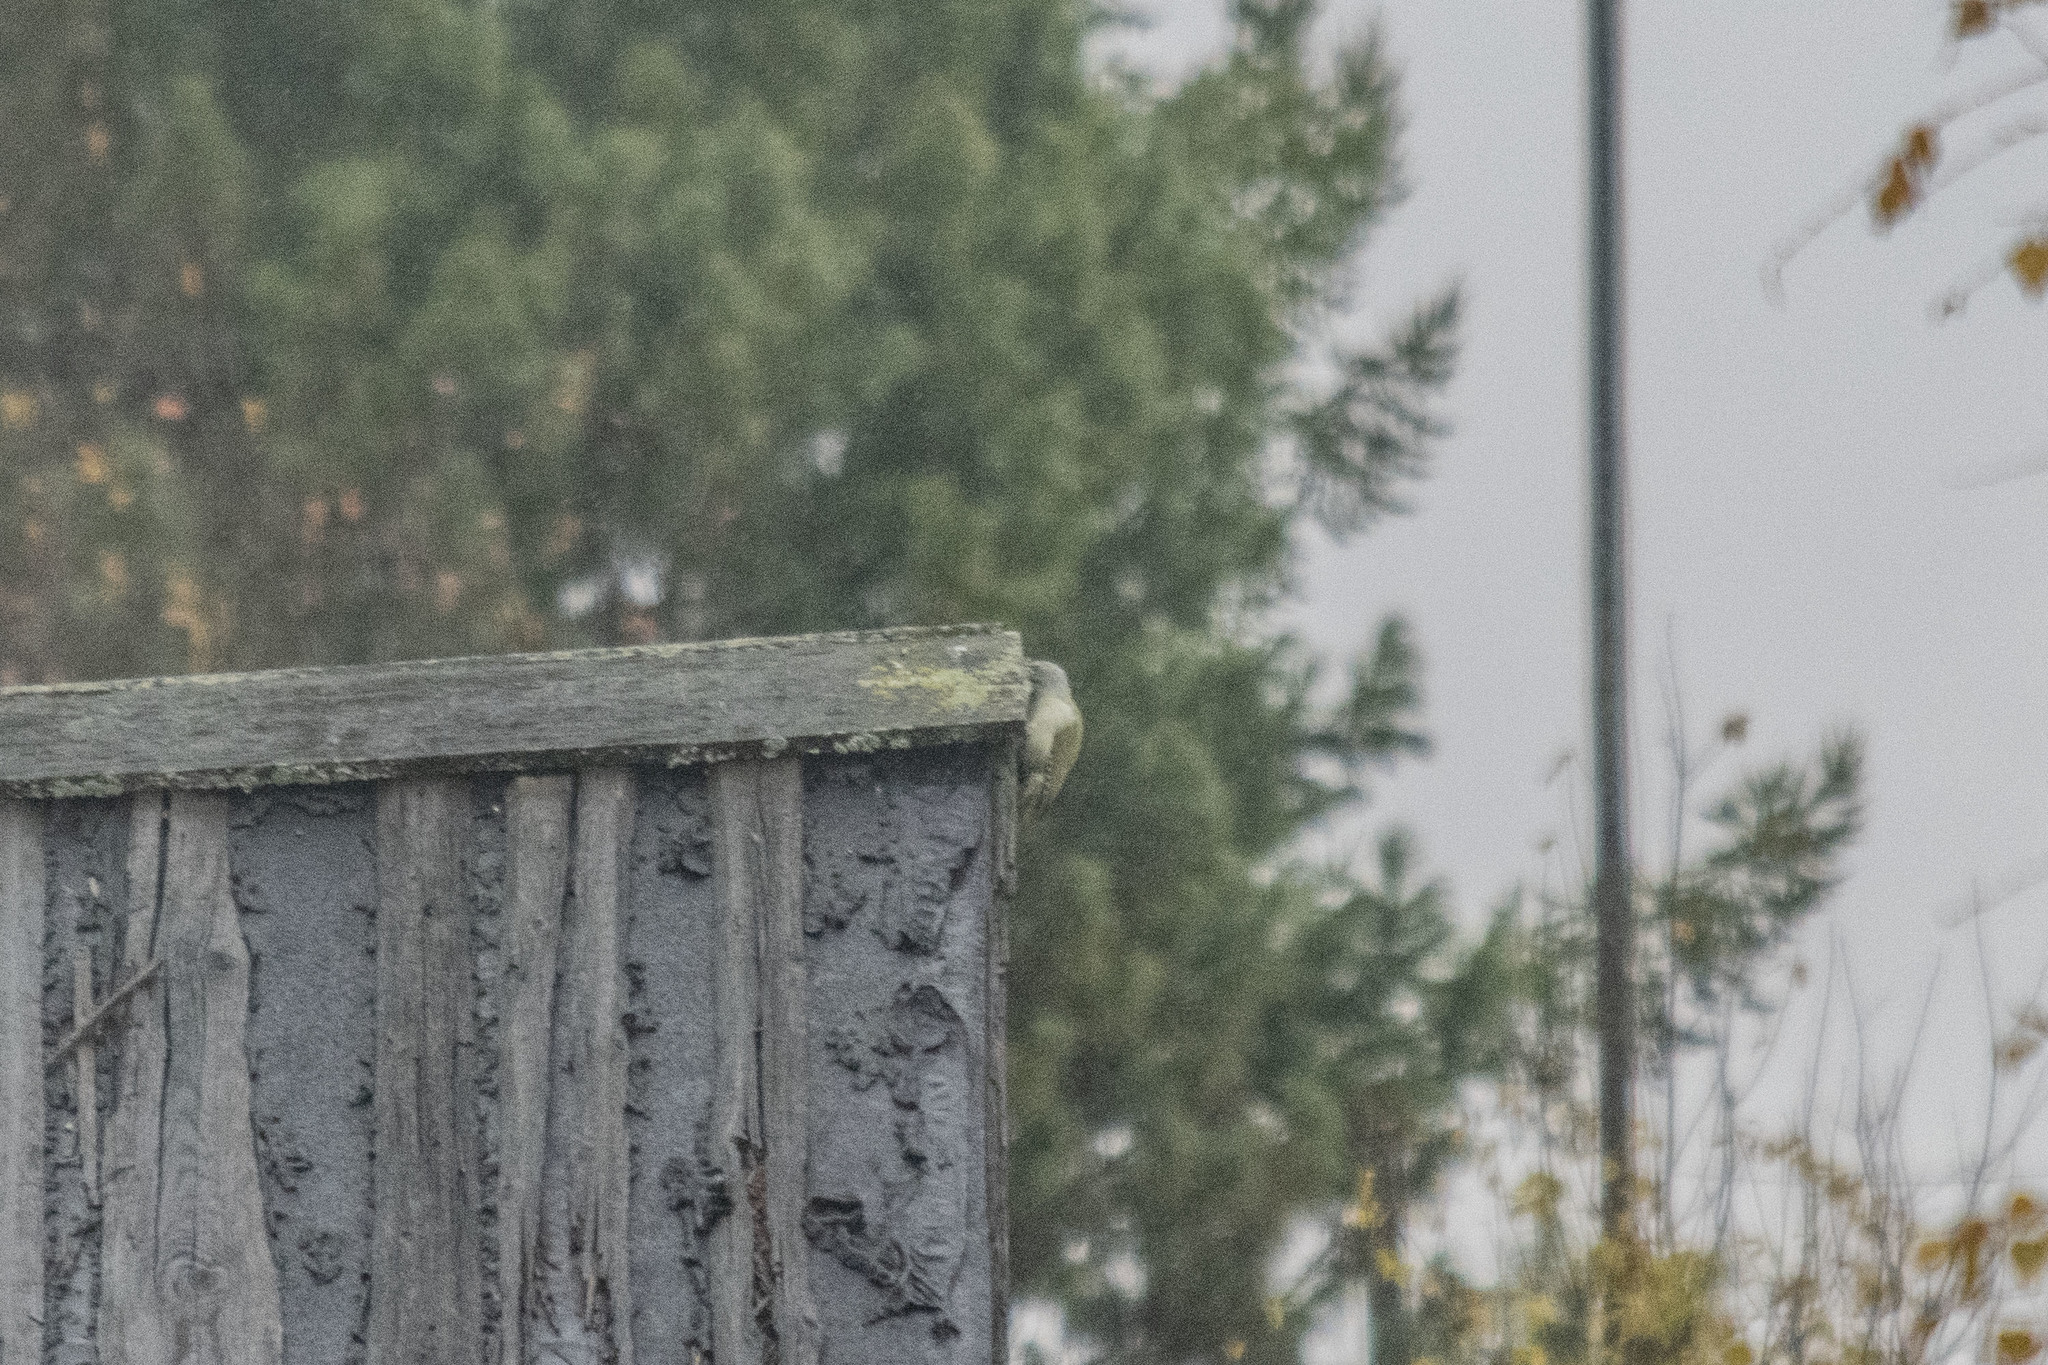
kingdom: Animalia
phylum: Chordata
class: Aves
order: Piciformes
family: Picidae
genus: Picus
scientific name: Picus canus
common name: Grey-headed woodpecker
